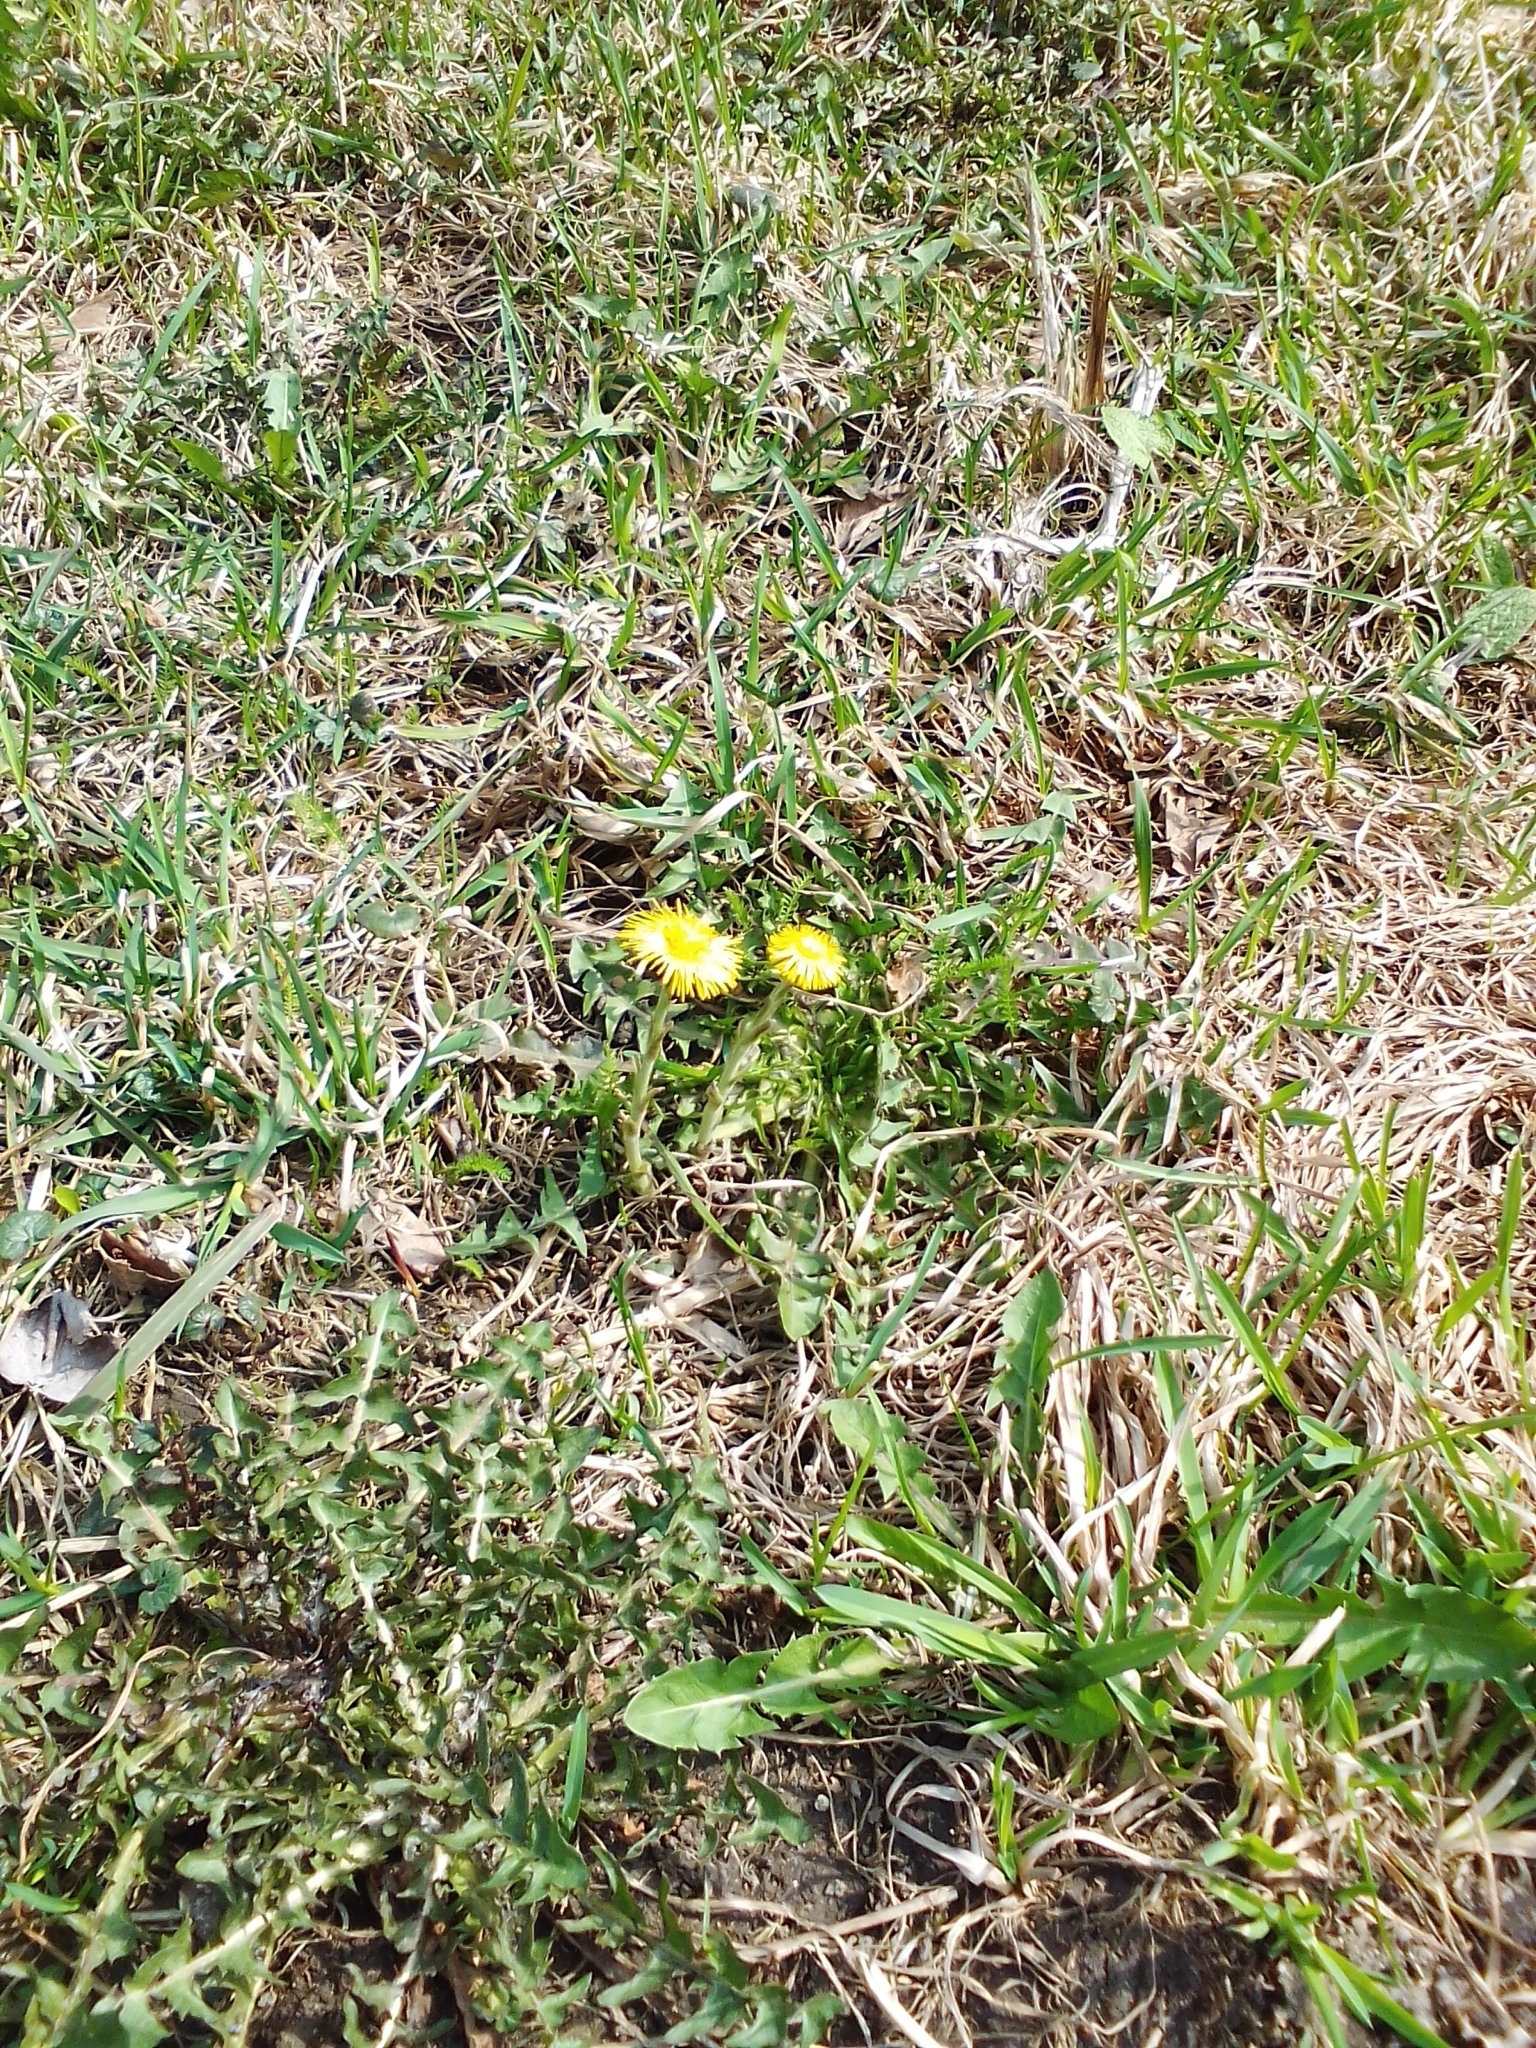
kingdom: Plantae
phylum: Tracheophyta
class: Magnoliopsida
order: Asterales
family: Asteraceae
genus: Tussilago
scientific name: Tussilago farfara
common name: Coltsfoot
